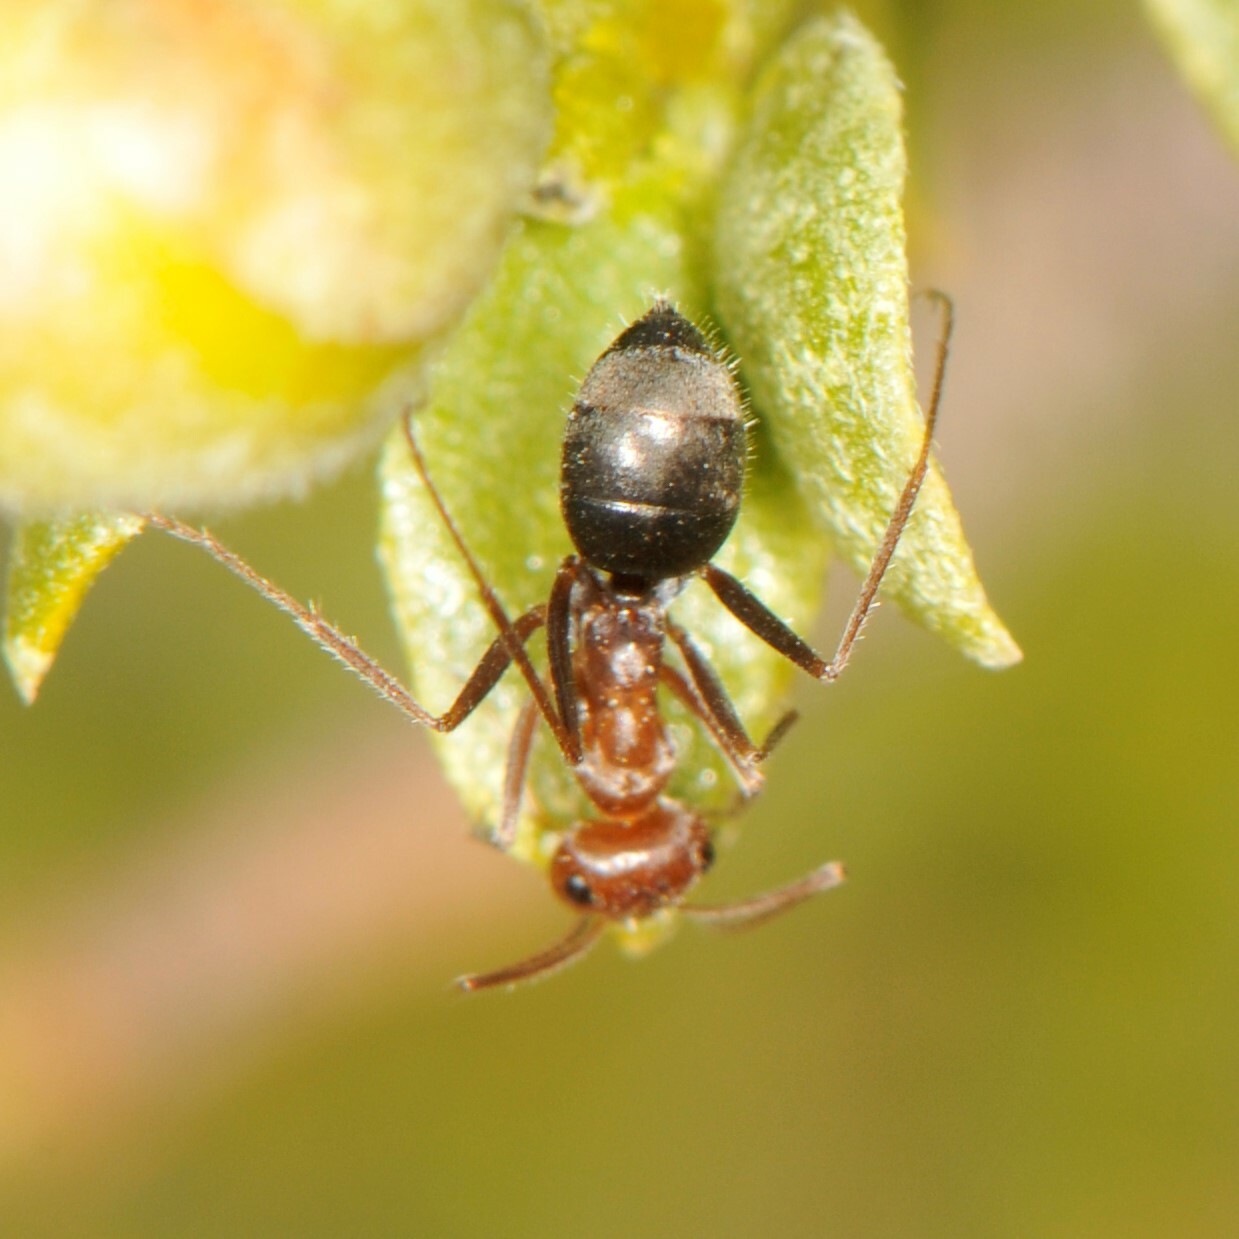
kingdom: Animalia
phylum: Arthropoda
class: Insecta
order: Hymenoptera
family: Formicidae
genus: Endiodioctes
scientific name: Endiodioctes
